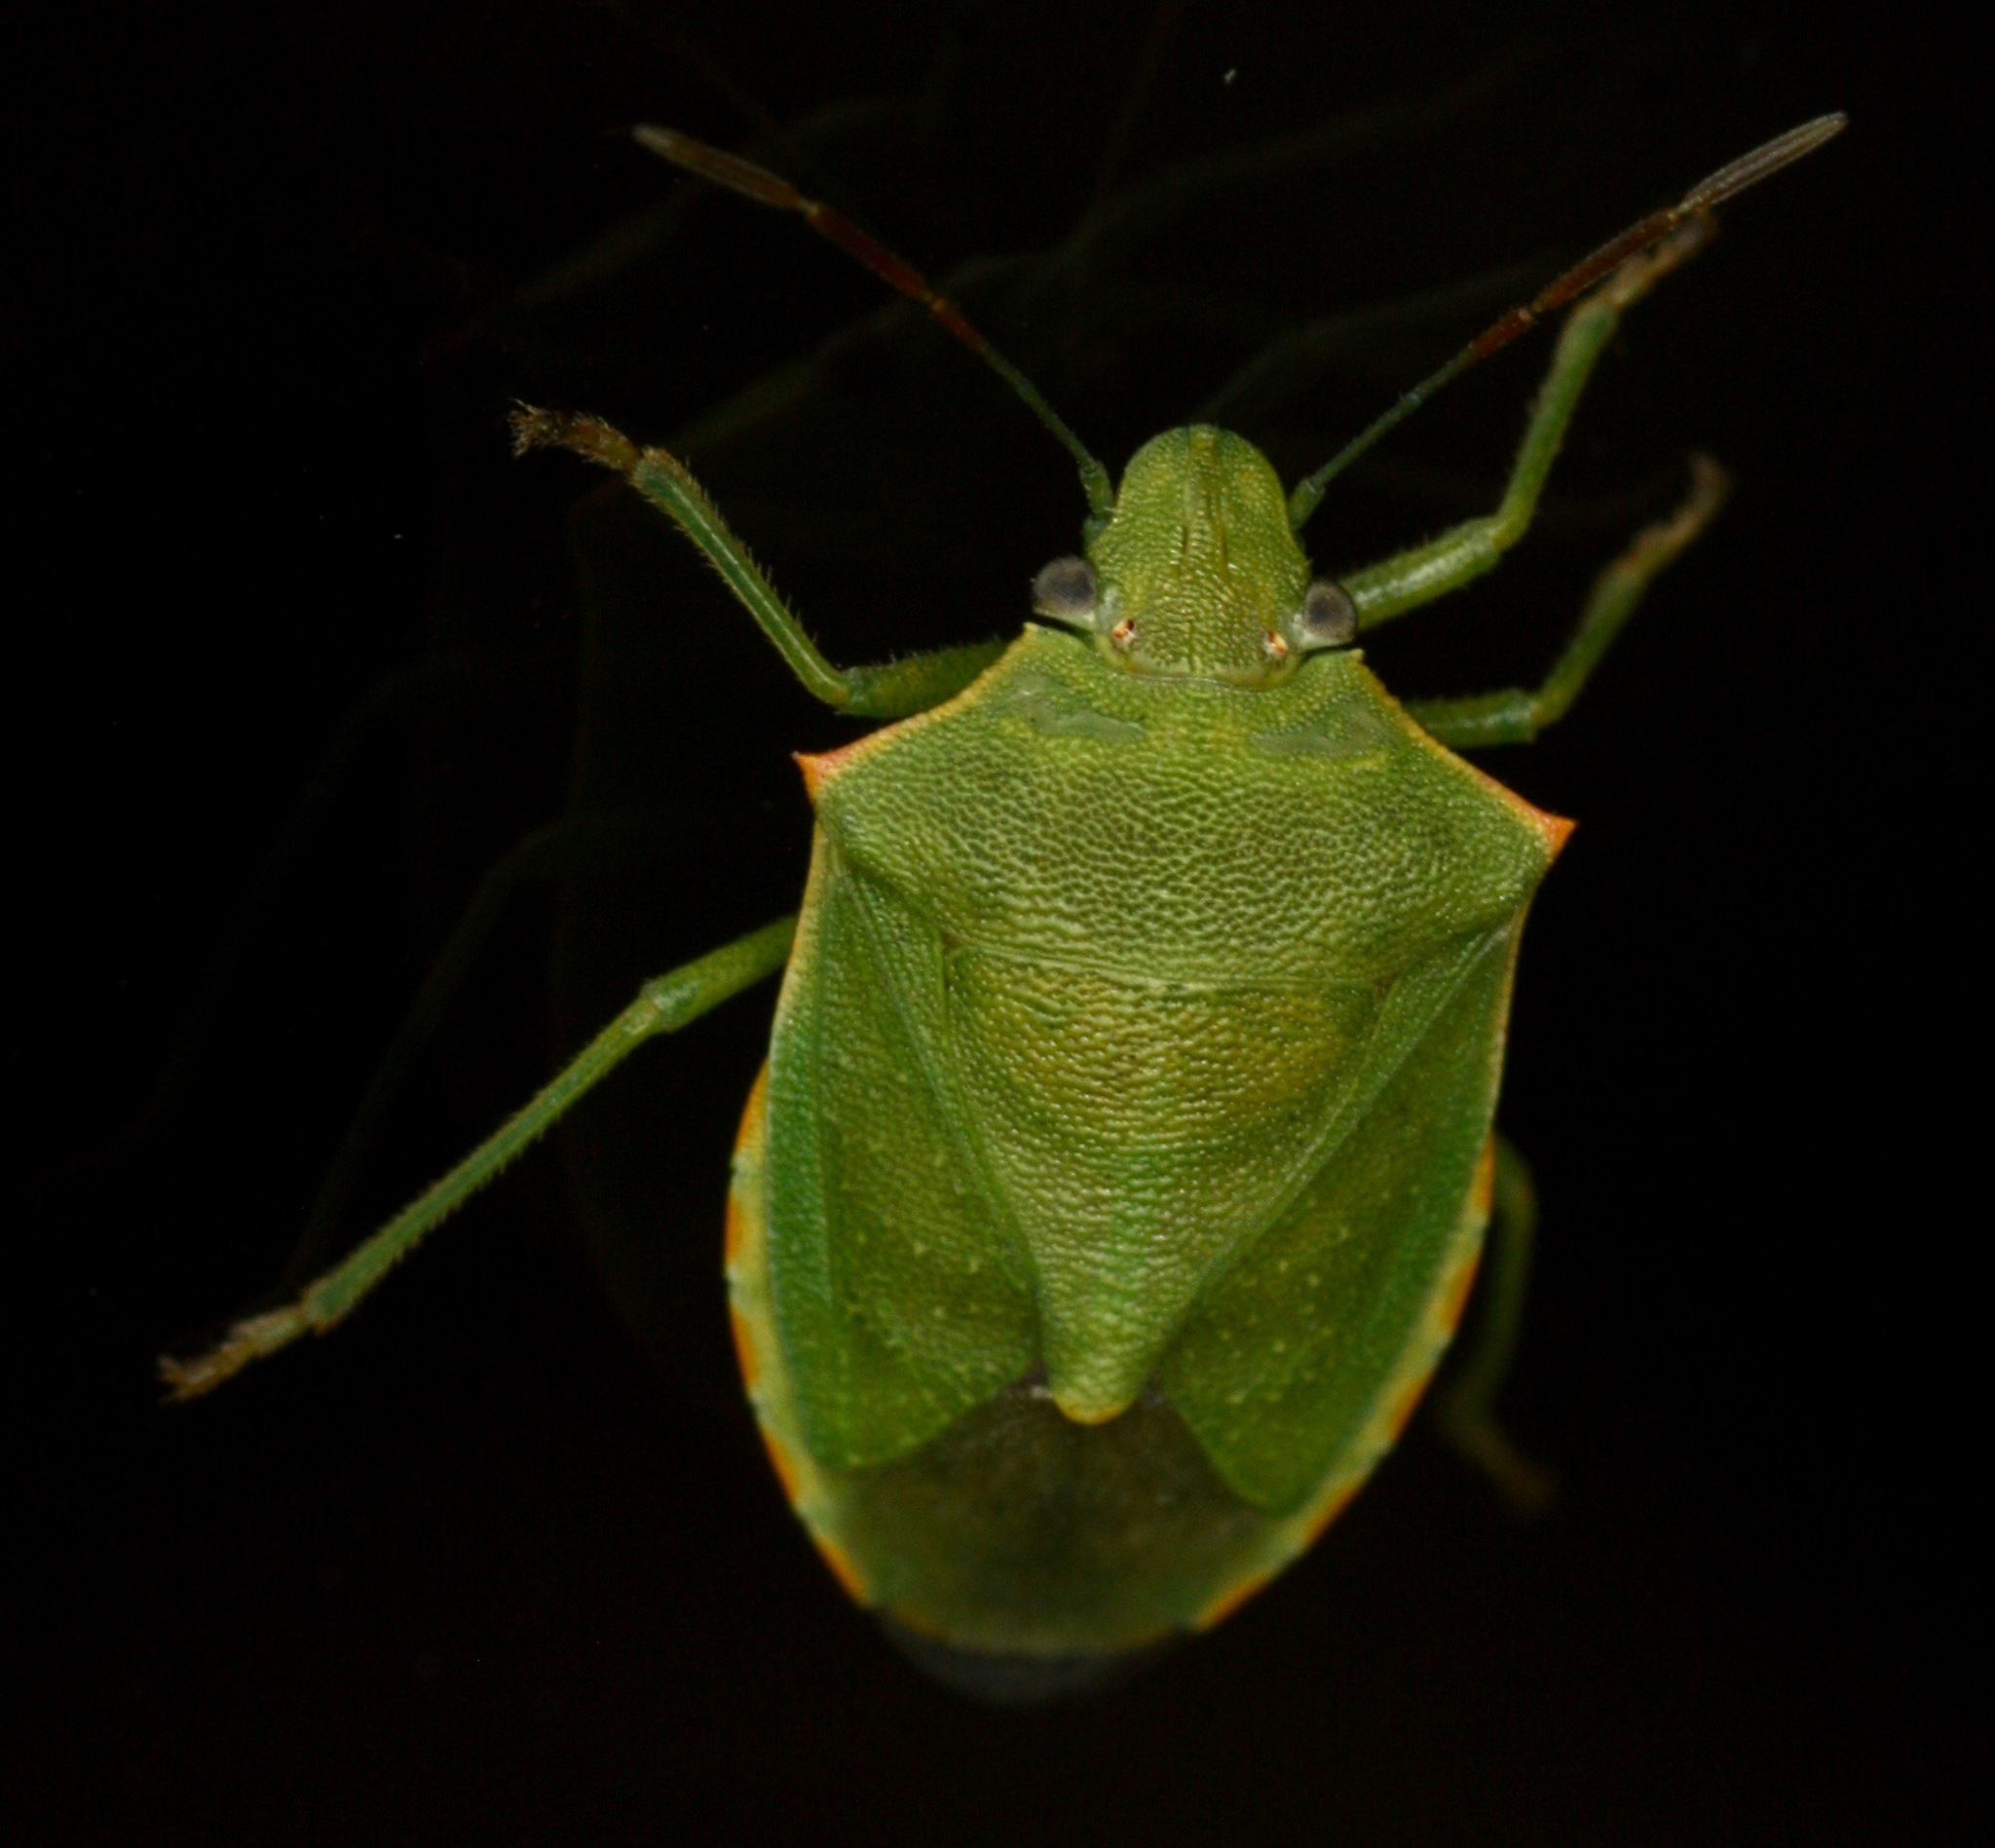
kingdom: Animalia
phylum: Arthropoda
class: Insecta
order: Hemiptera
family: Pentatomidae
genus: Thyanta
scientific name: Thyanta custator
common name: Stink bug
